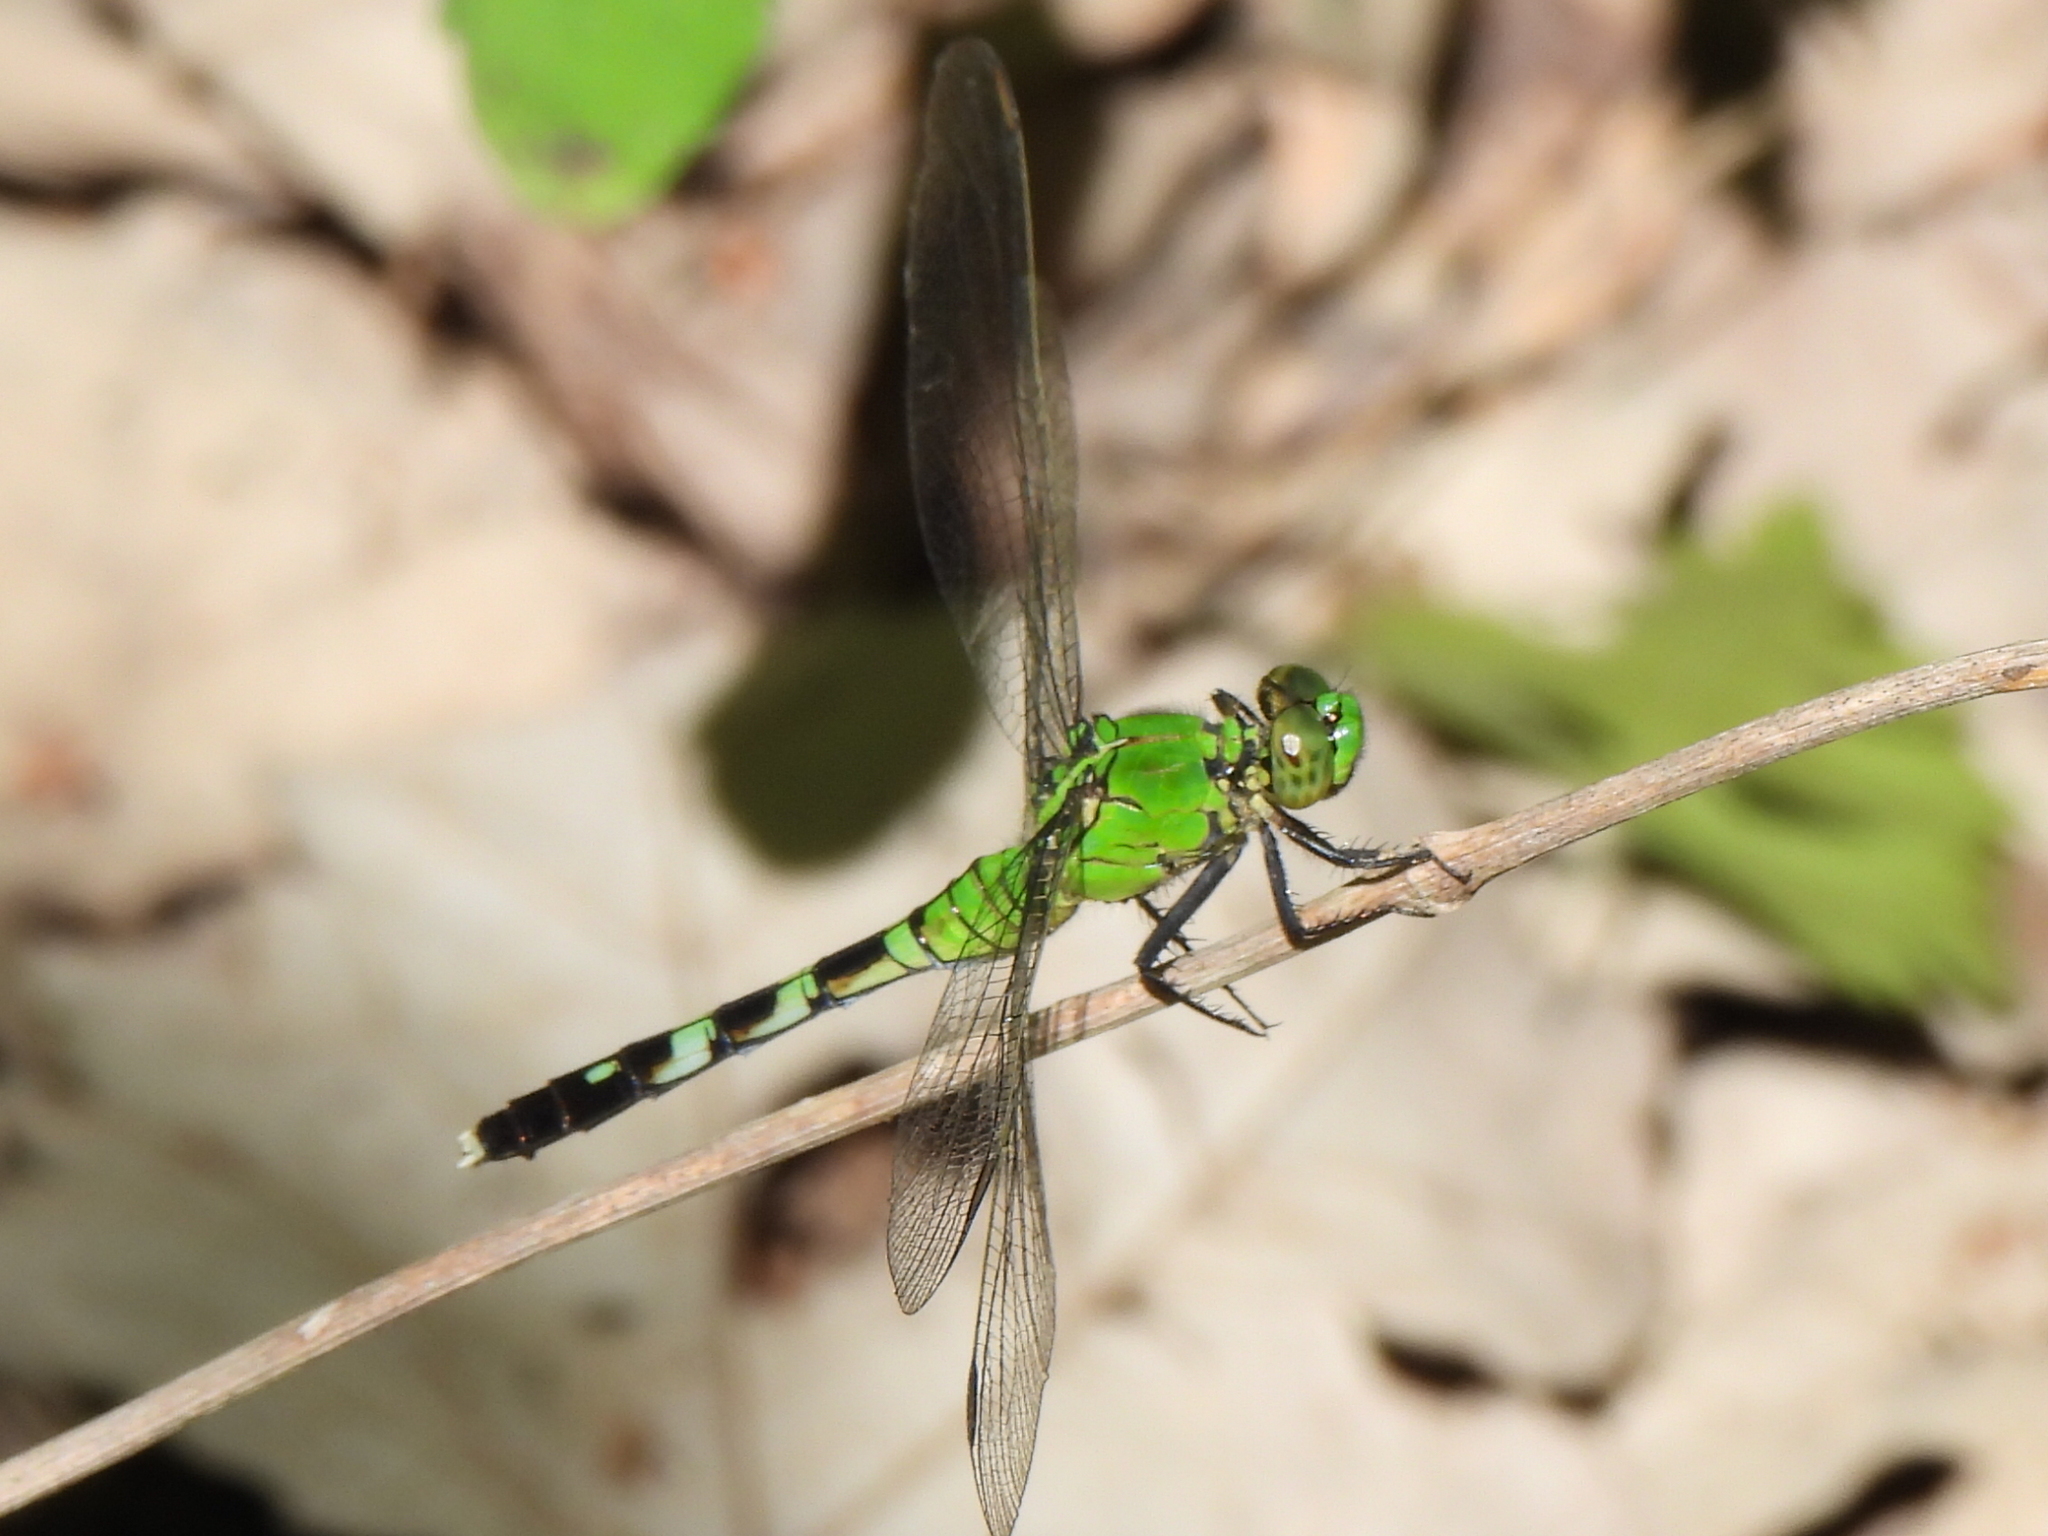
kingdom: Animalia
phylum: Arthropoda
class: Insecta
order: Odonata
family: Libellulidae
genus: Erythemis
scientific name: Erythemis simplicicollis
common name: Eastern pondhawk
